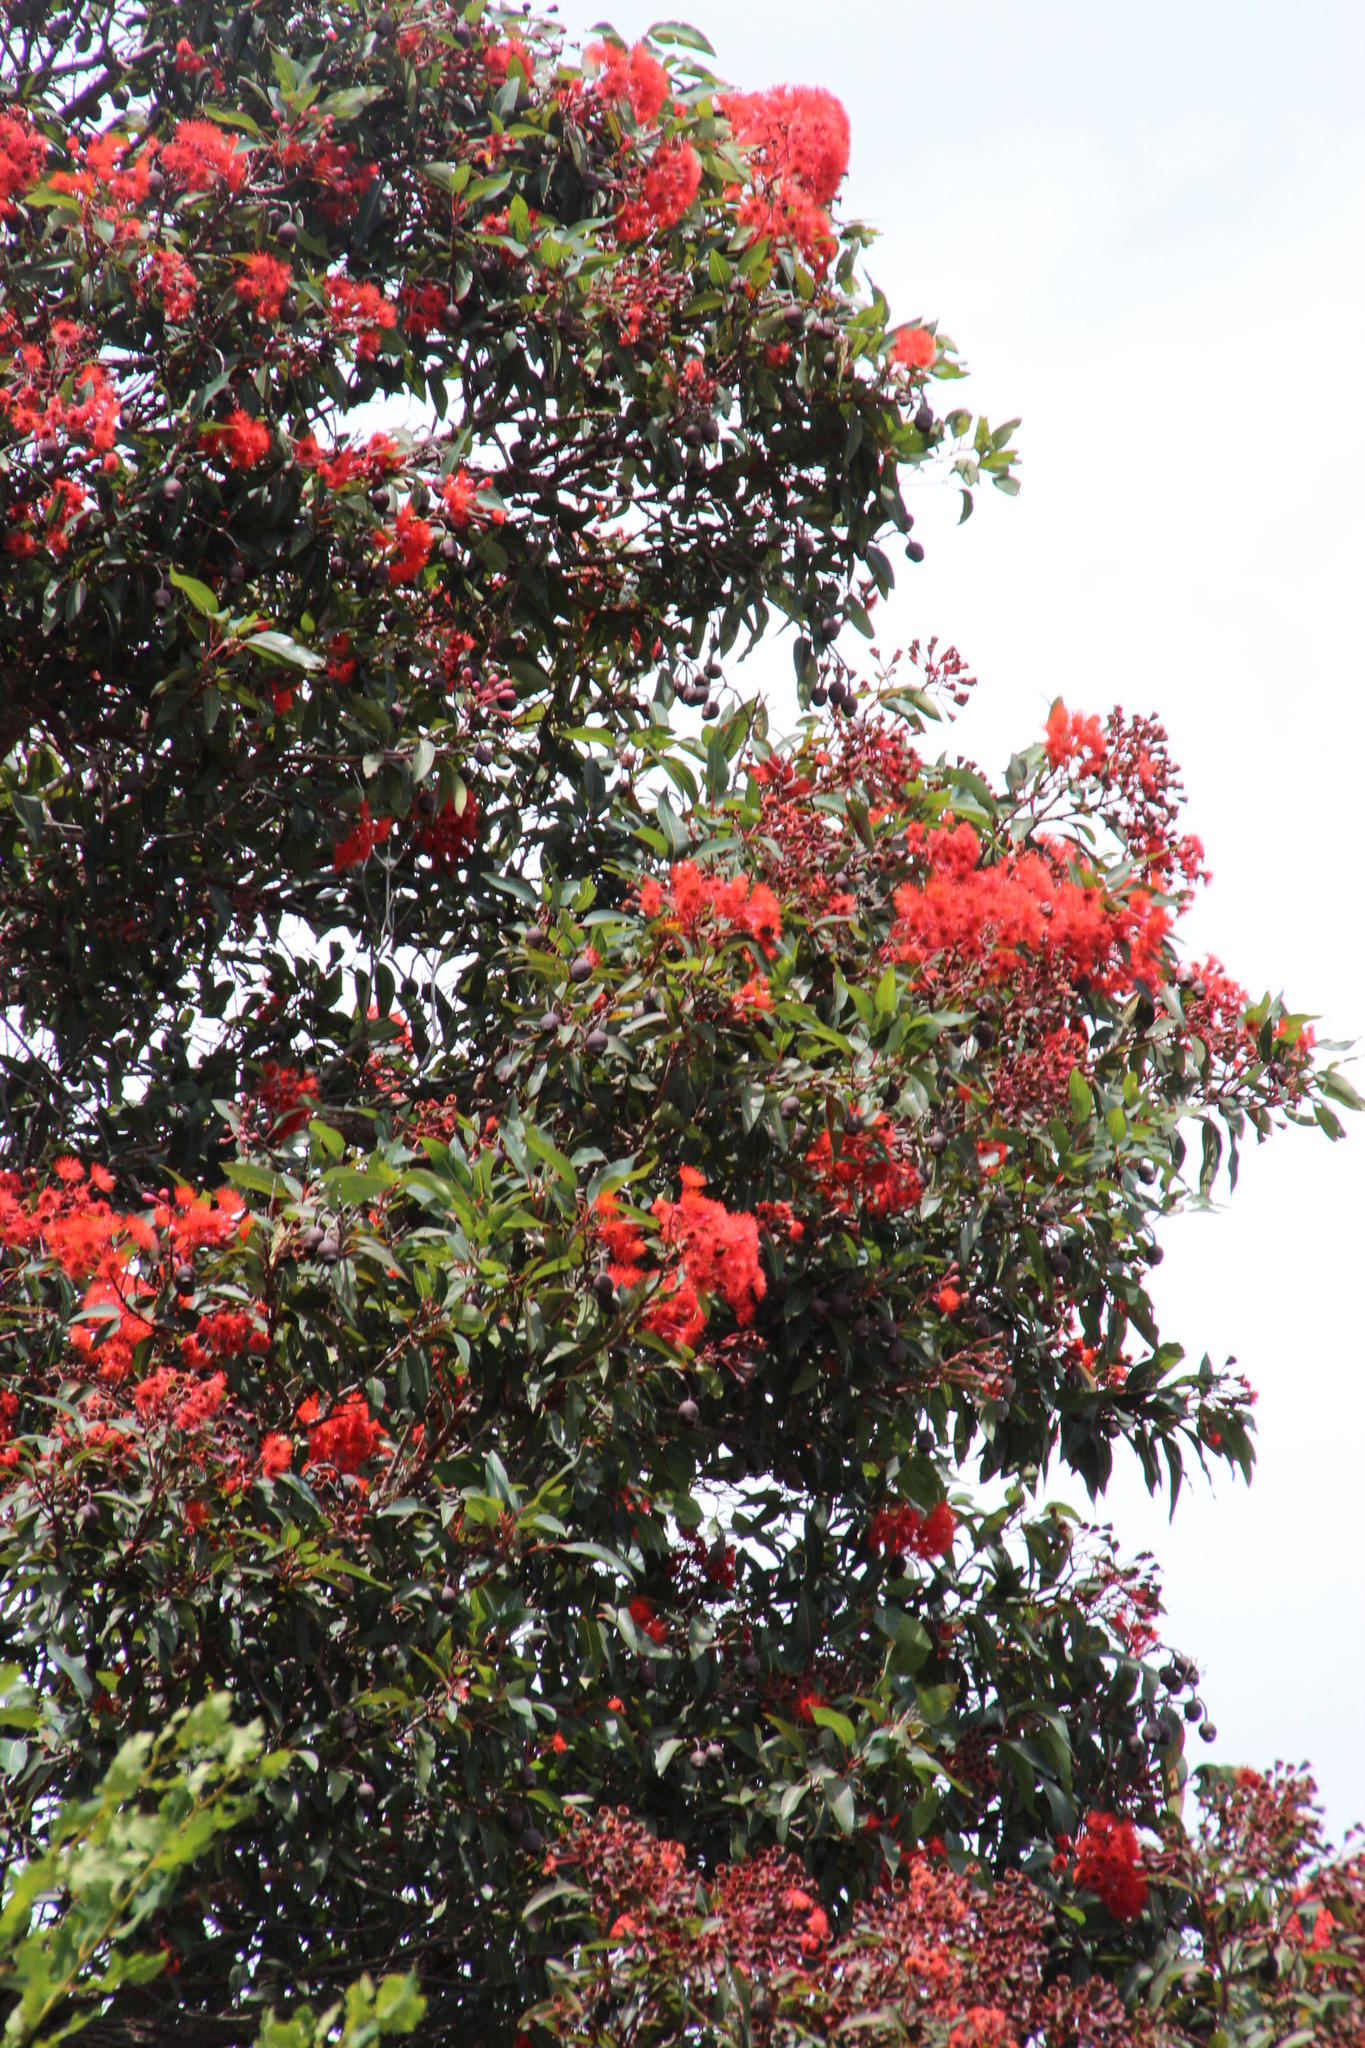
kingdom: Plantae
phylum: Tracheophyta
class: Magnoliopsida
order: Myrtales
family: Myrtaceae
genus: Corymbia
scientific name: Corymbia ficifolia
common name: Redflower gum
